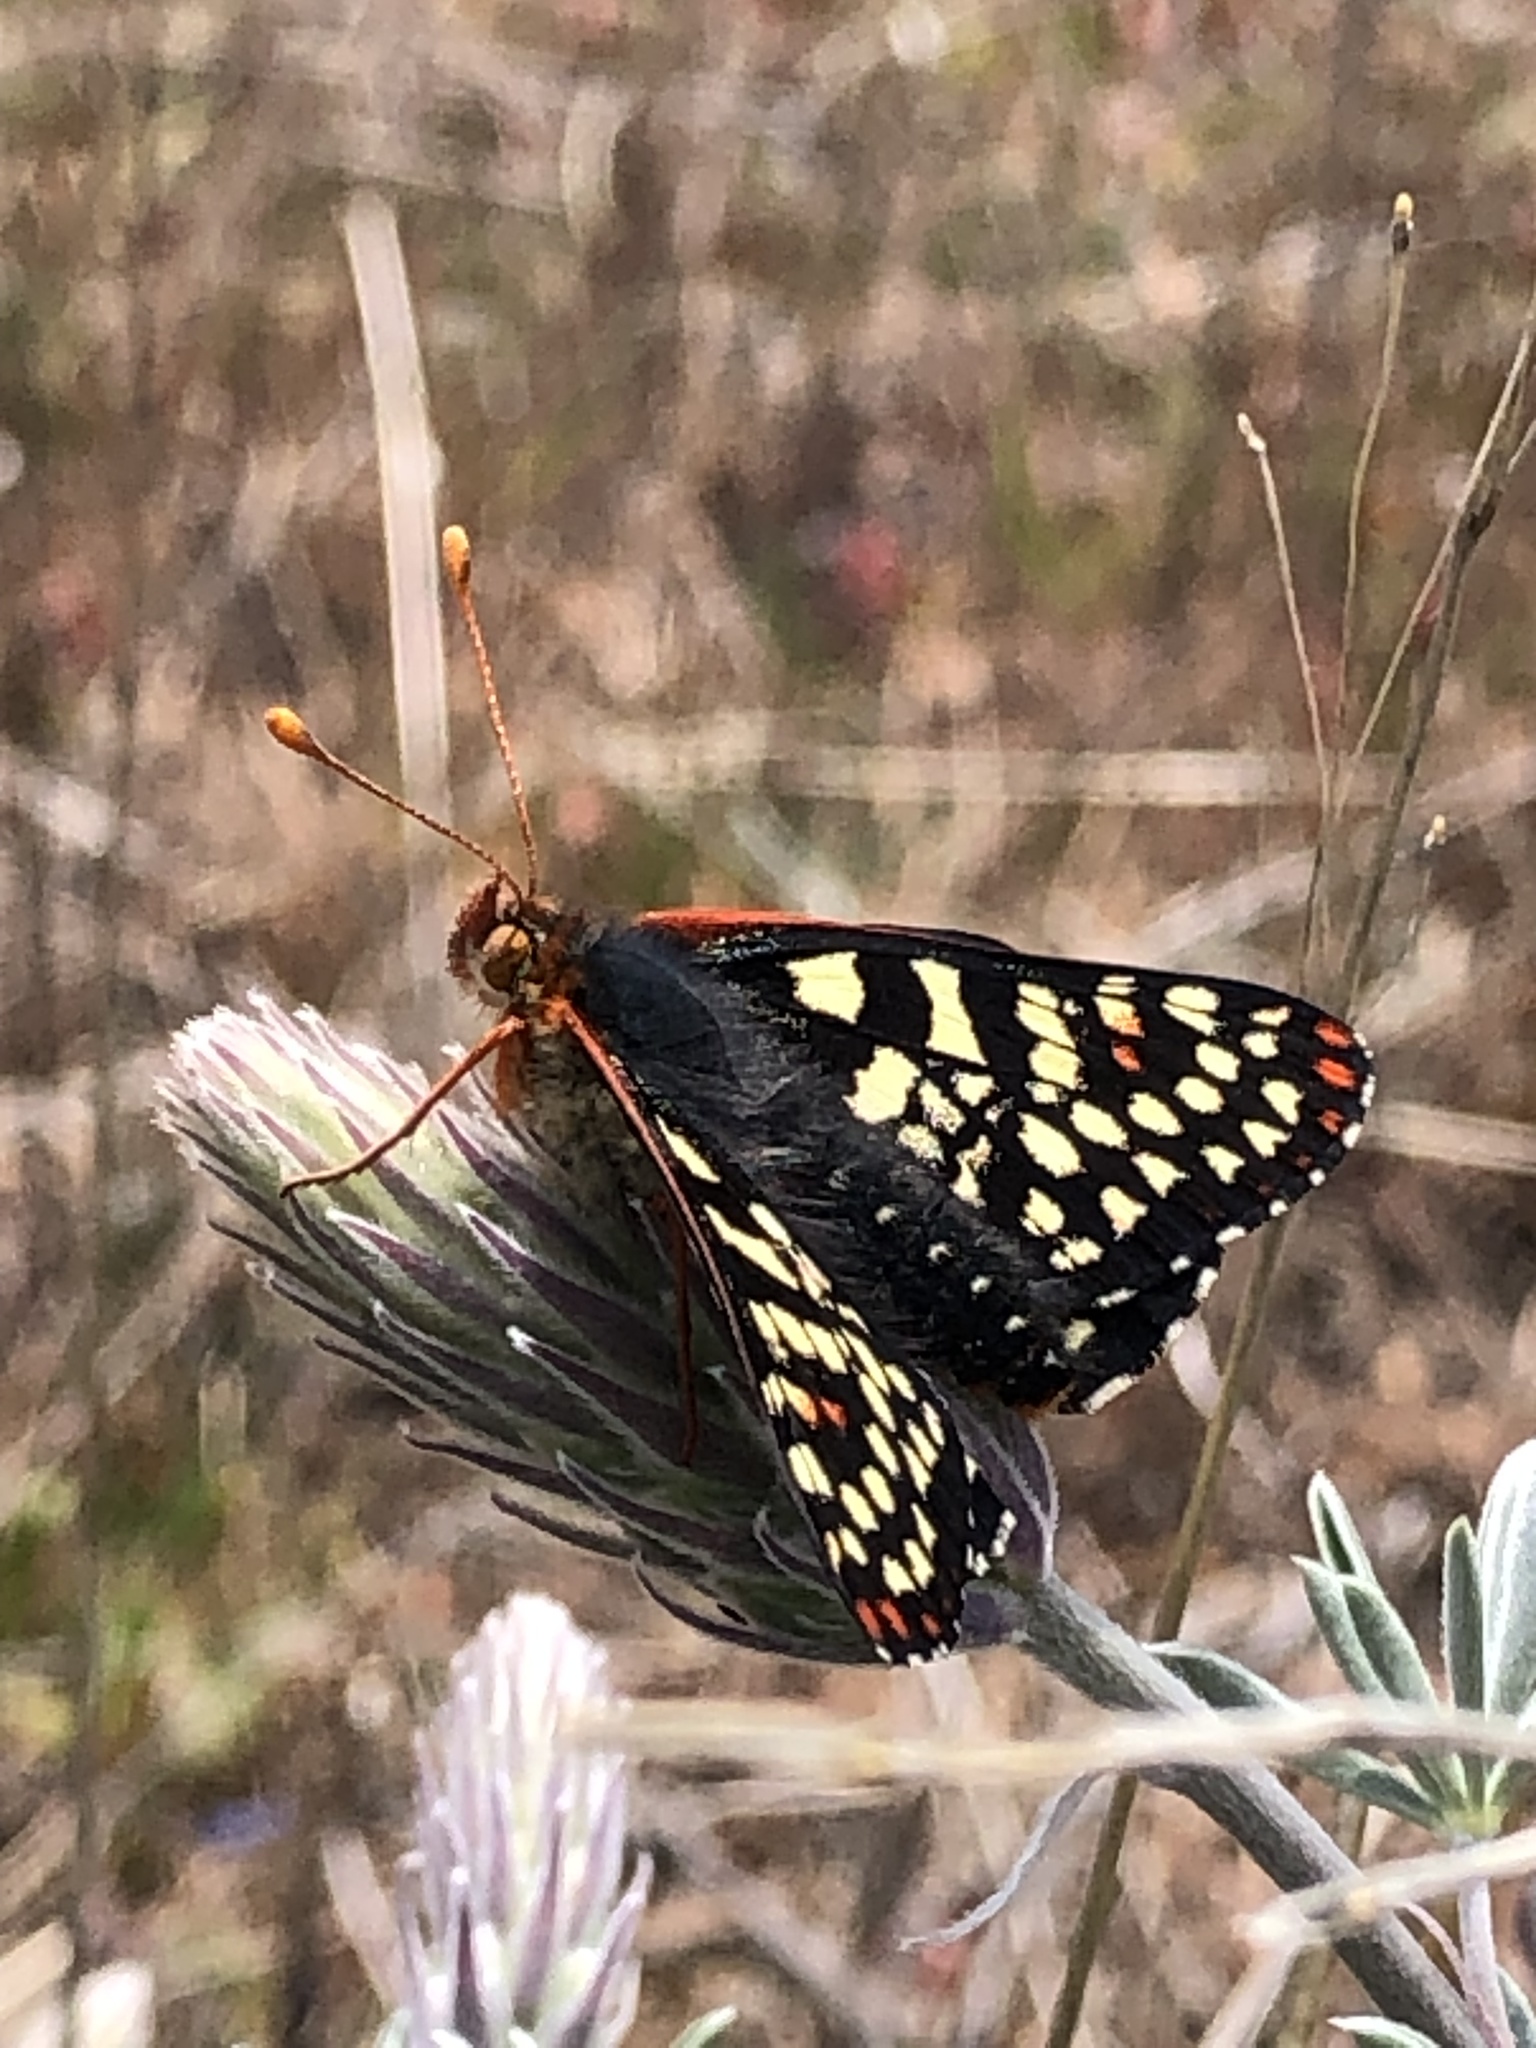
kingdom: Animalia
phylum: Arthropoda
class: Insecta
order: Lepidoptera
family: Nymphalidae
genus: Occidryas
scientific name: Occidryas chalcedona
